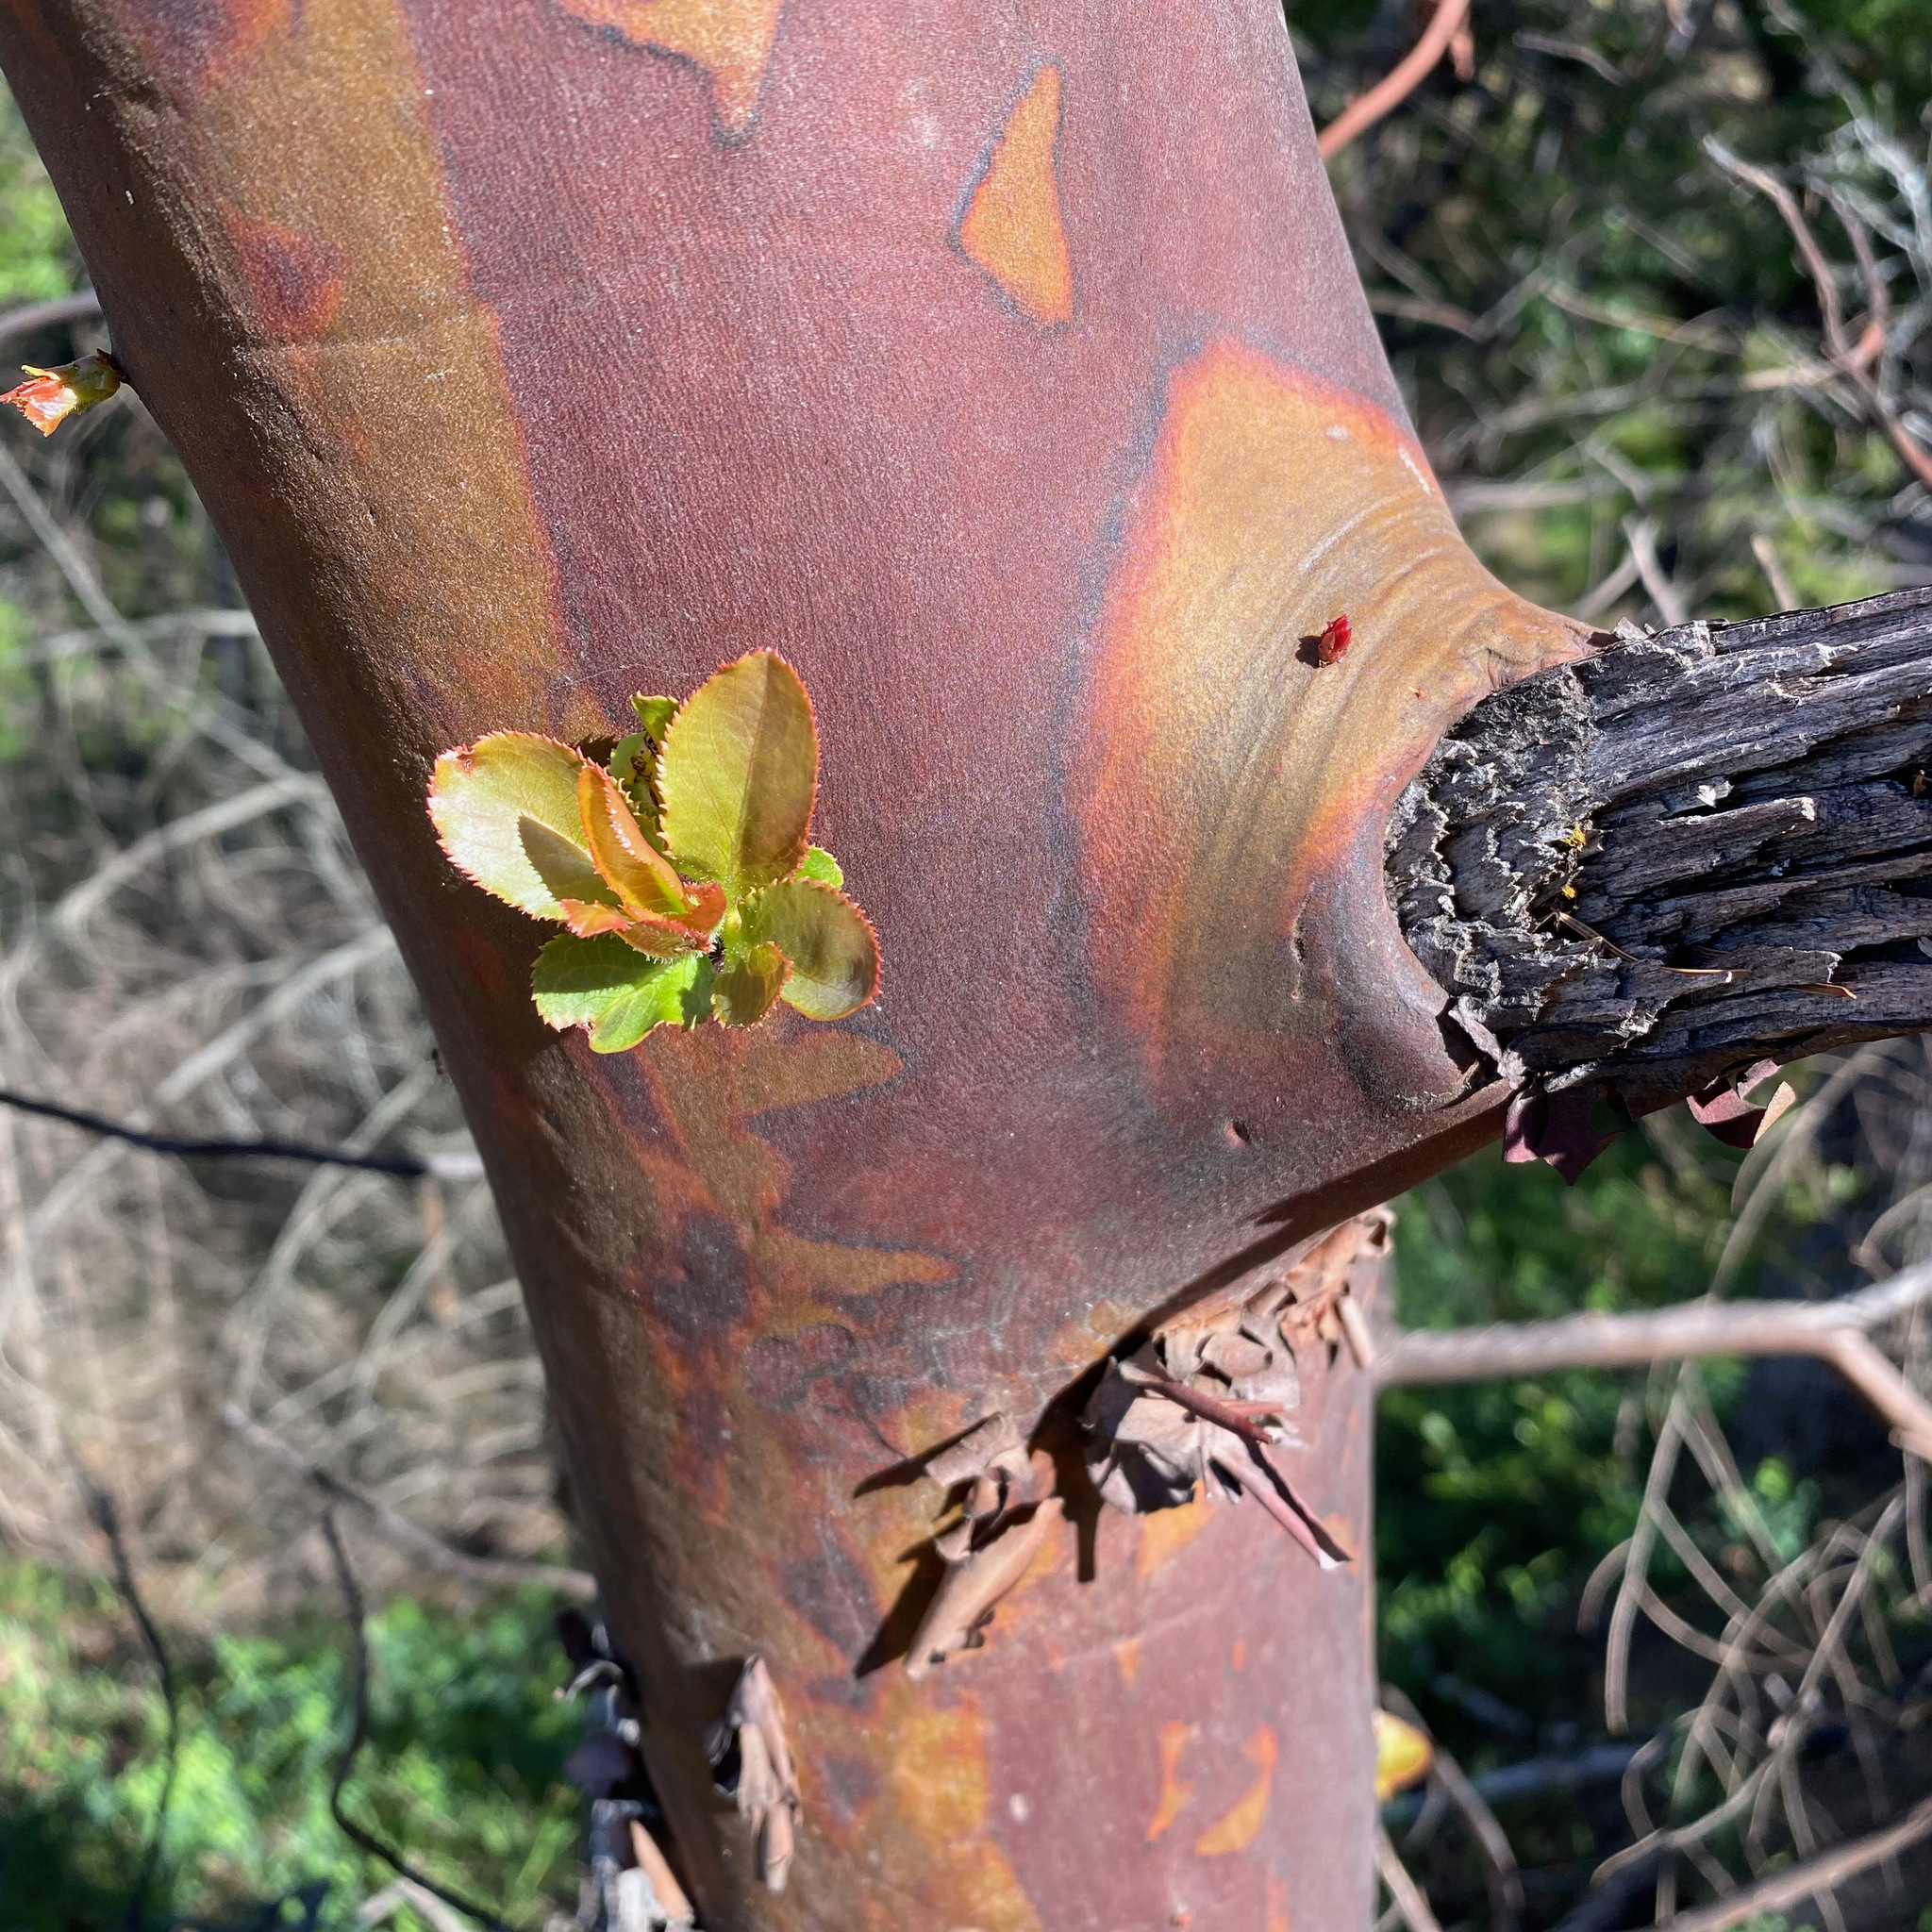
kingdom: Plantae
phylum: Tracheophyta
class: Magnoliopsida
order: Ericales
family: Ericaceae
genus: Arbutus
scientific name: Arbutus menziesii
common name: Pacific madrone
